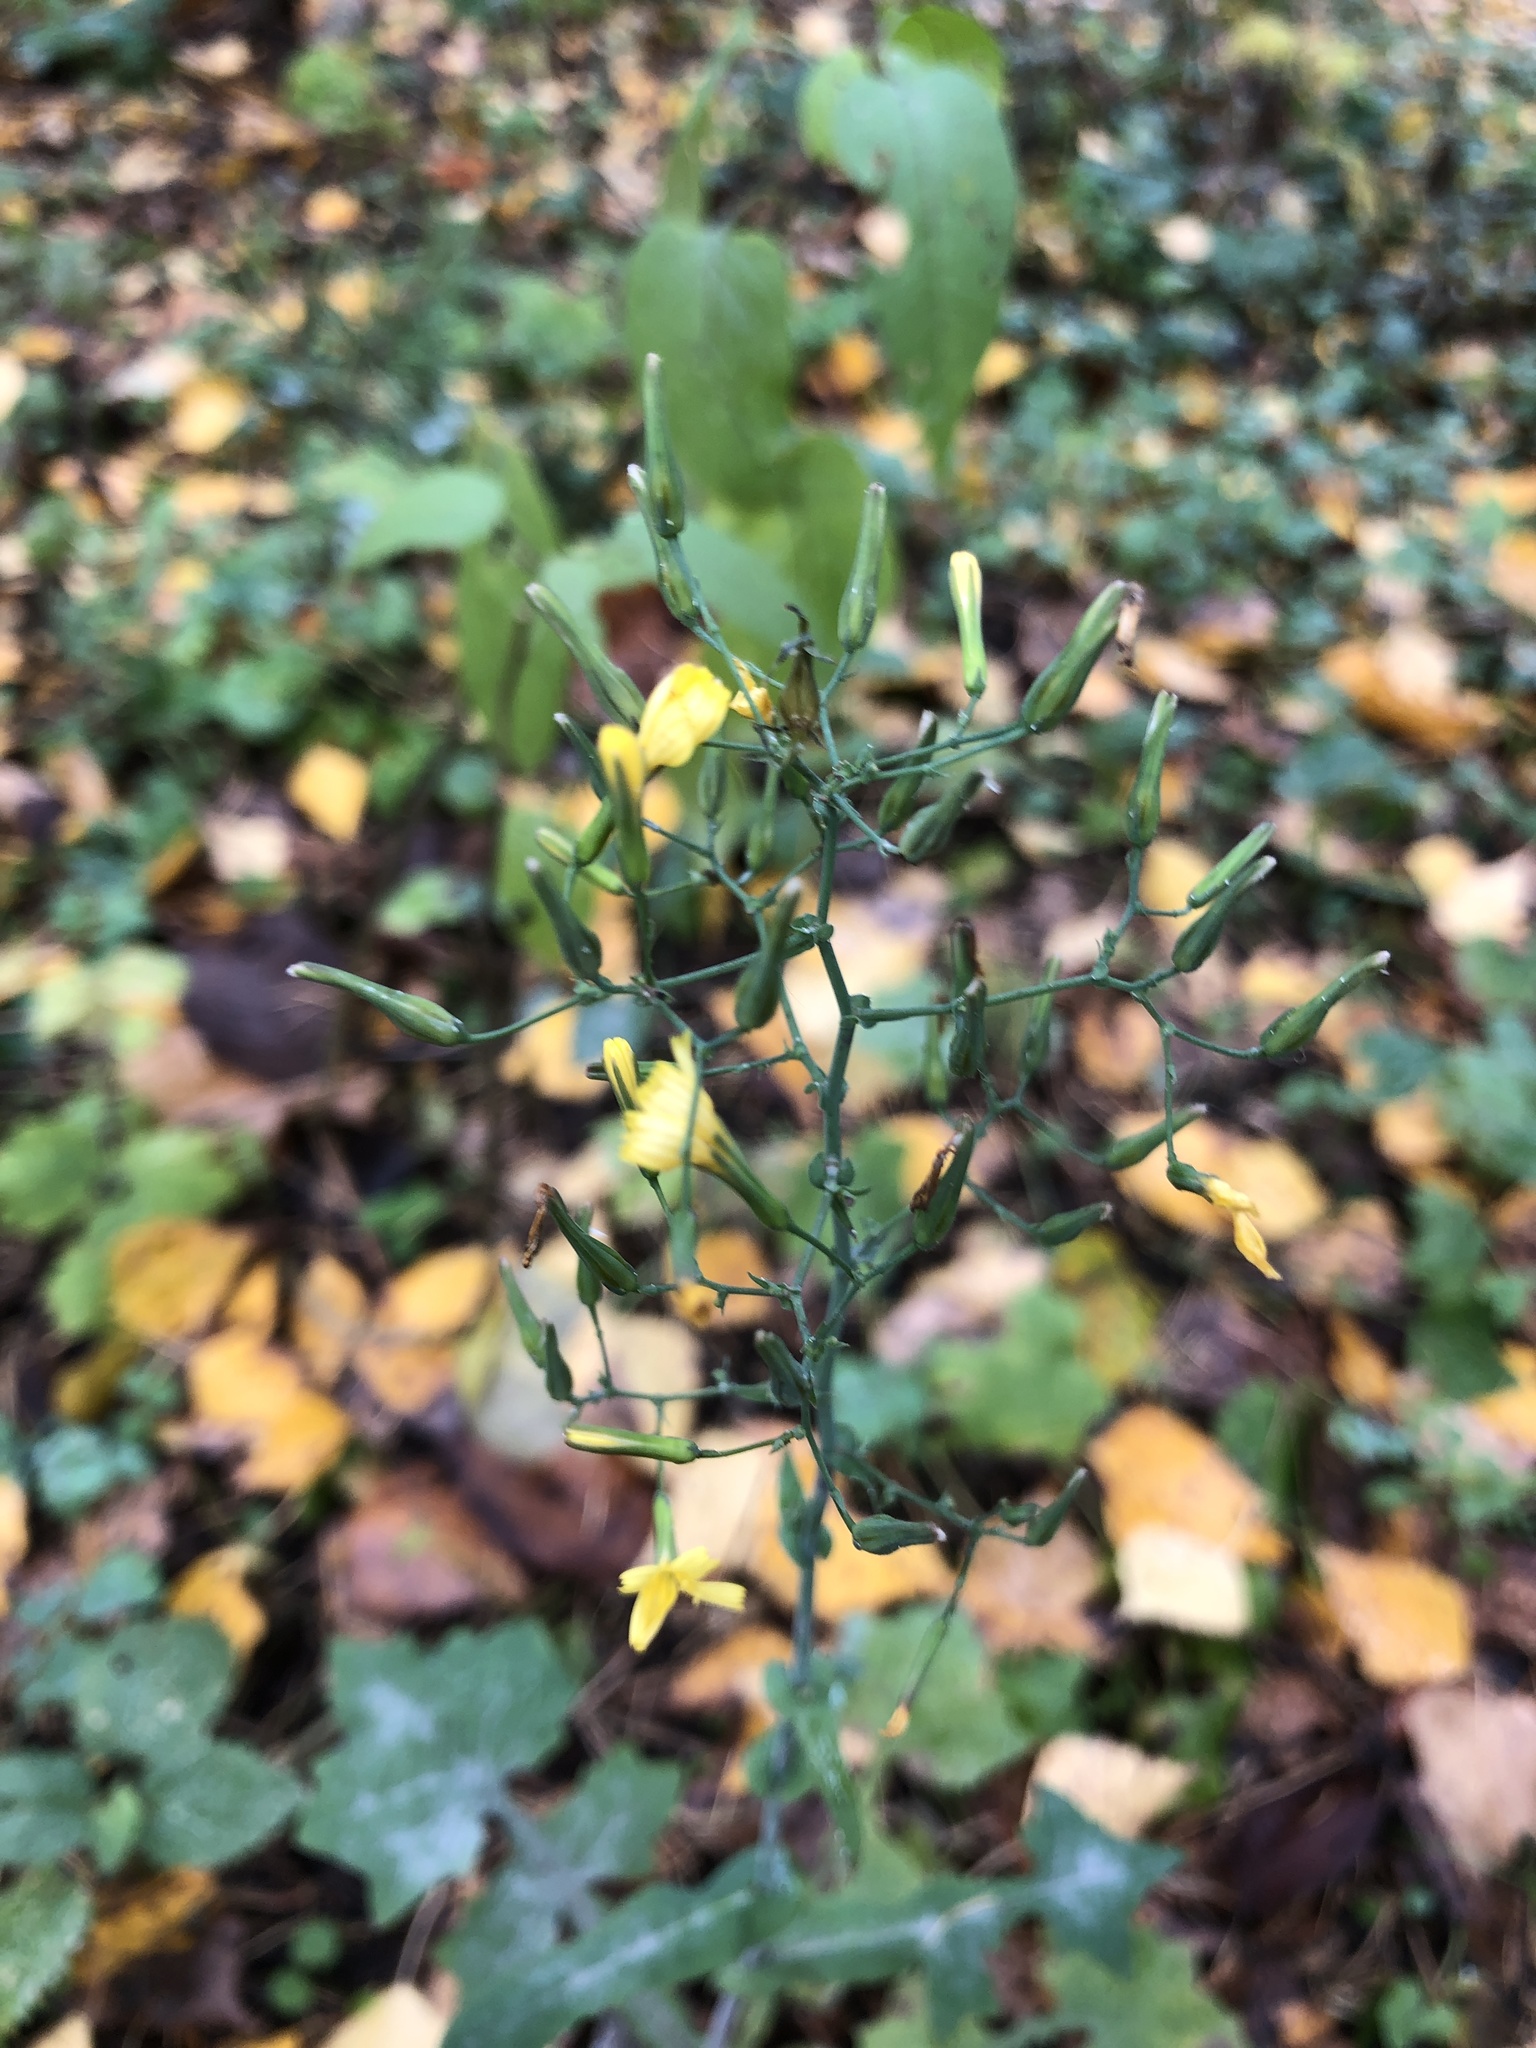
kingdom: Plantae
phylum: Tracheophyta
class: Magnoliopsida
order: Asterales
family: Asteraceae
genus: Mycelis
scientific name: Mycelis muralis
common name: Wall lettuce
